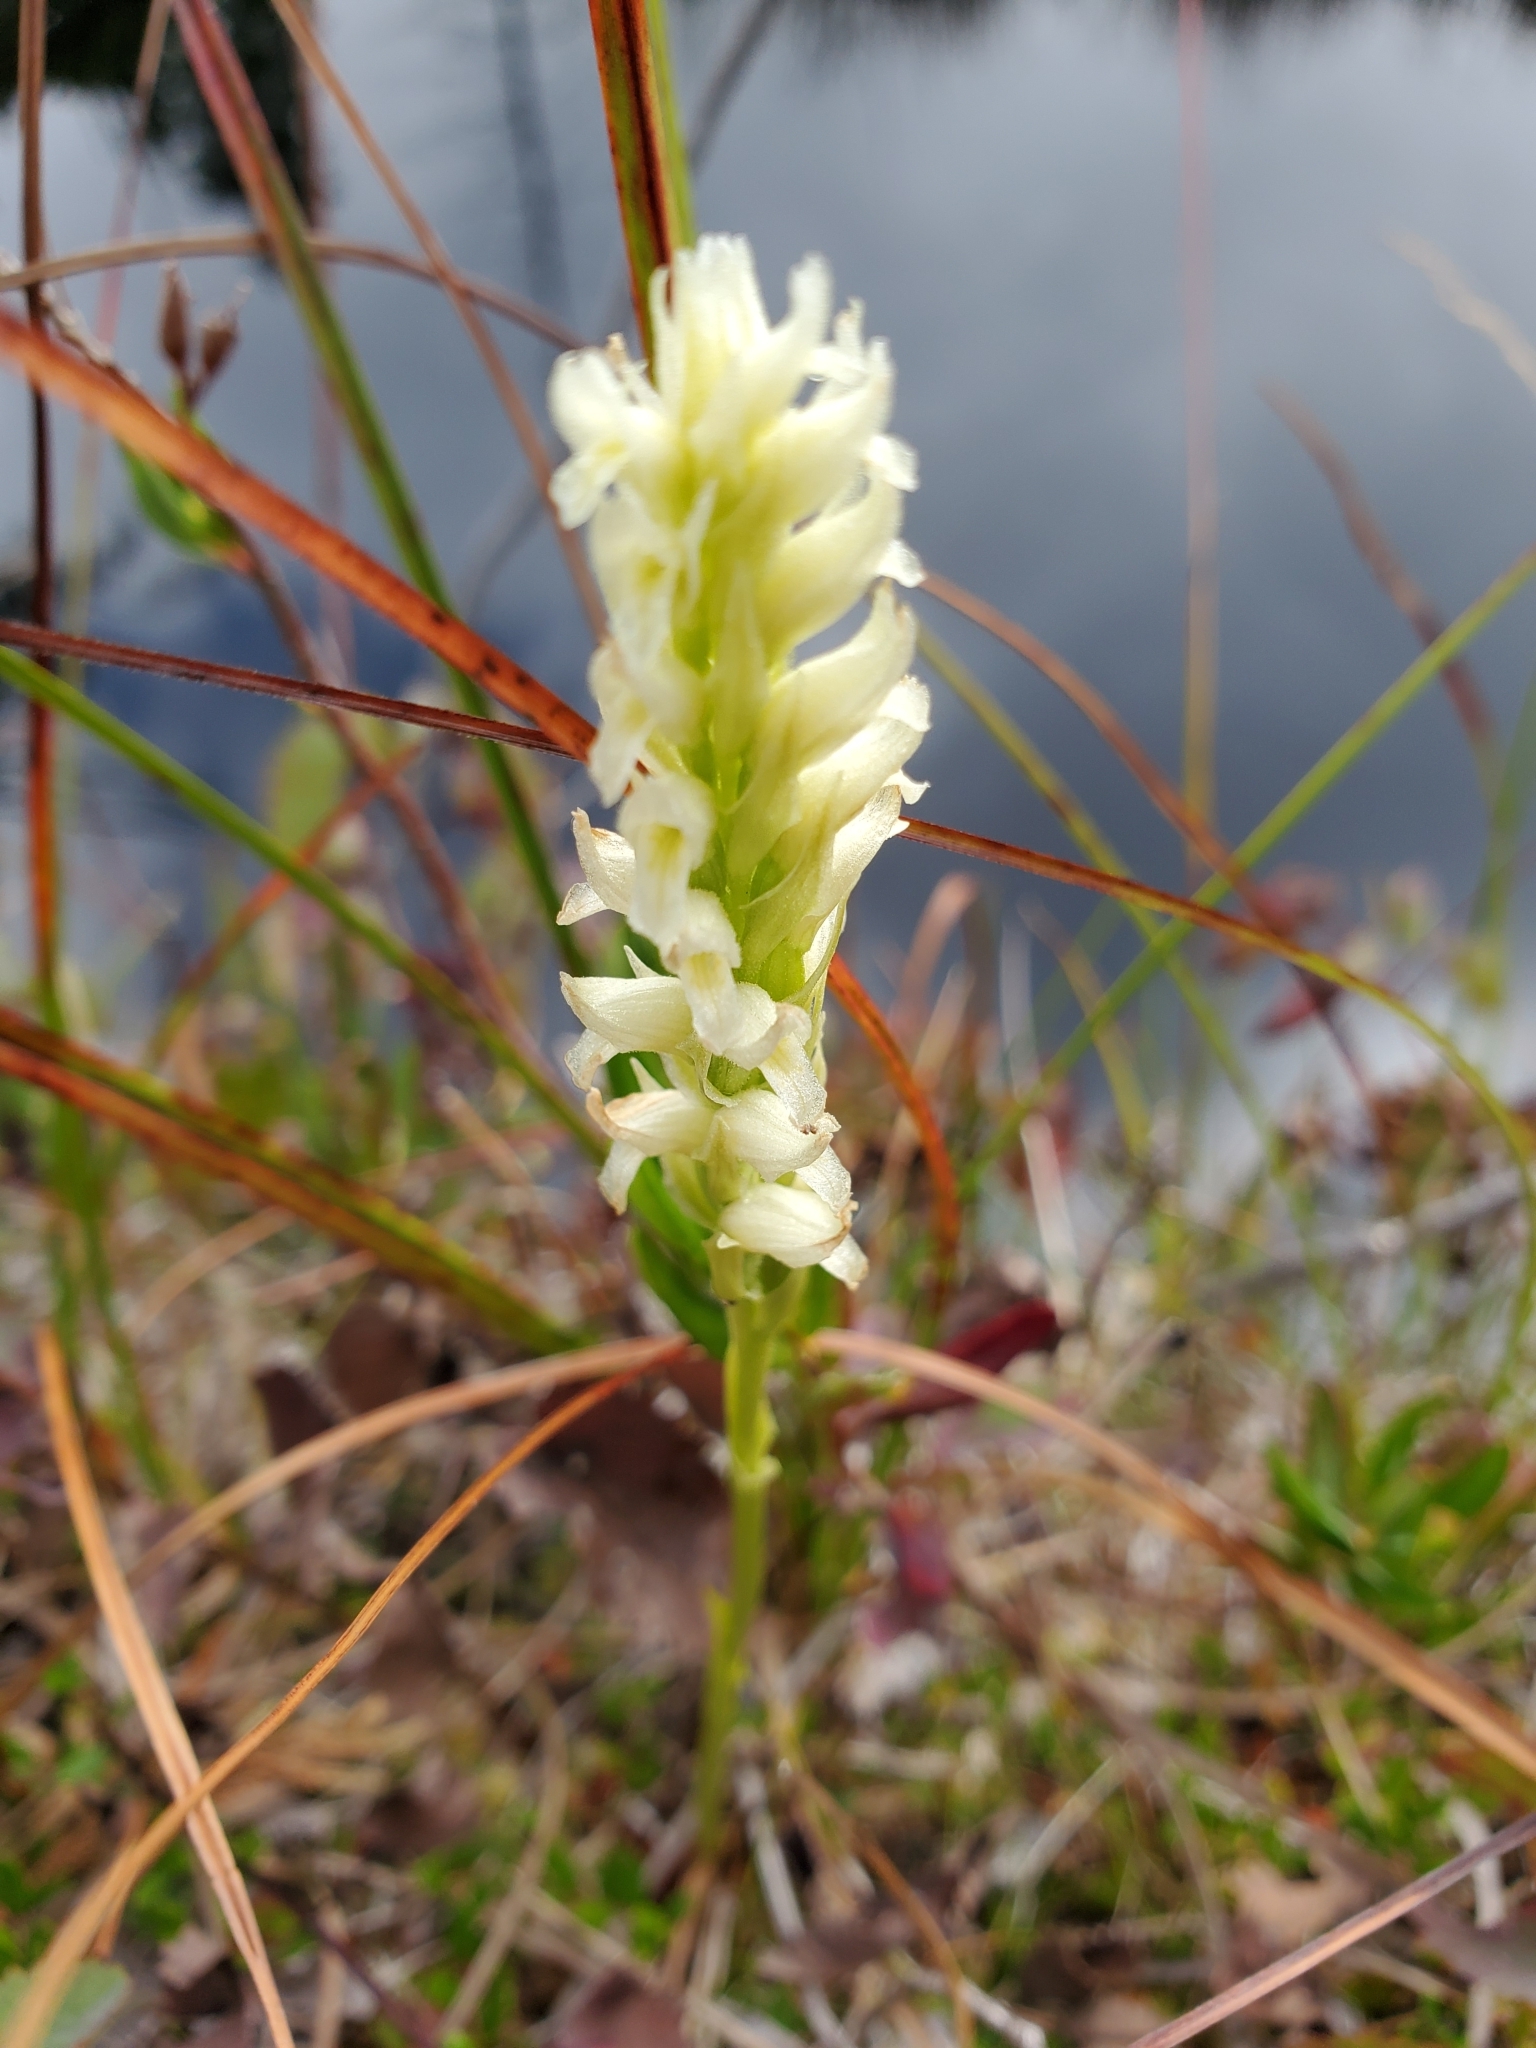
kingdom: Plantae
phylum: Tracheophyta
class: Liliopsida
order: Asparagales
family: Orchidaceae
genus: Spiranthes
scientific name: Spiranthes romanzoffiana
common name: Irish lady's-tresses
